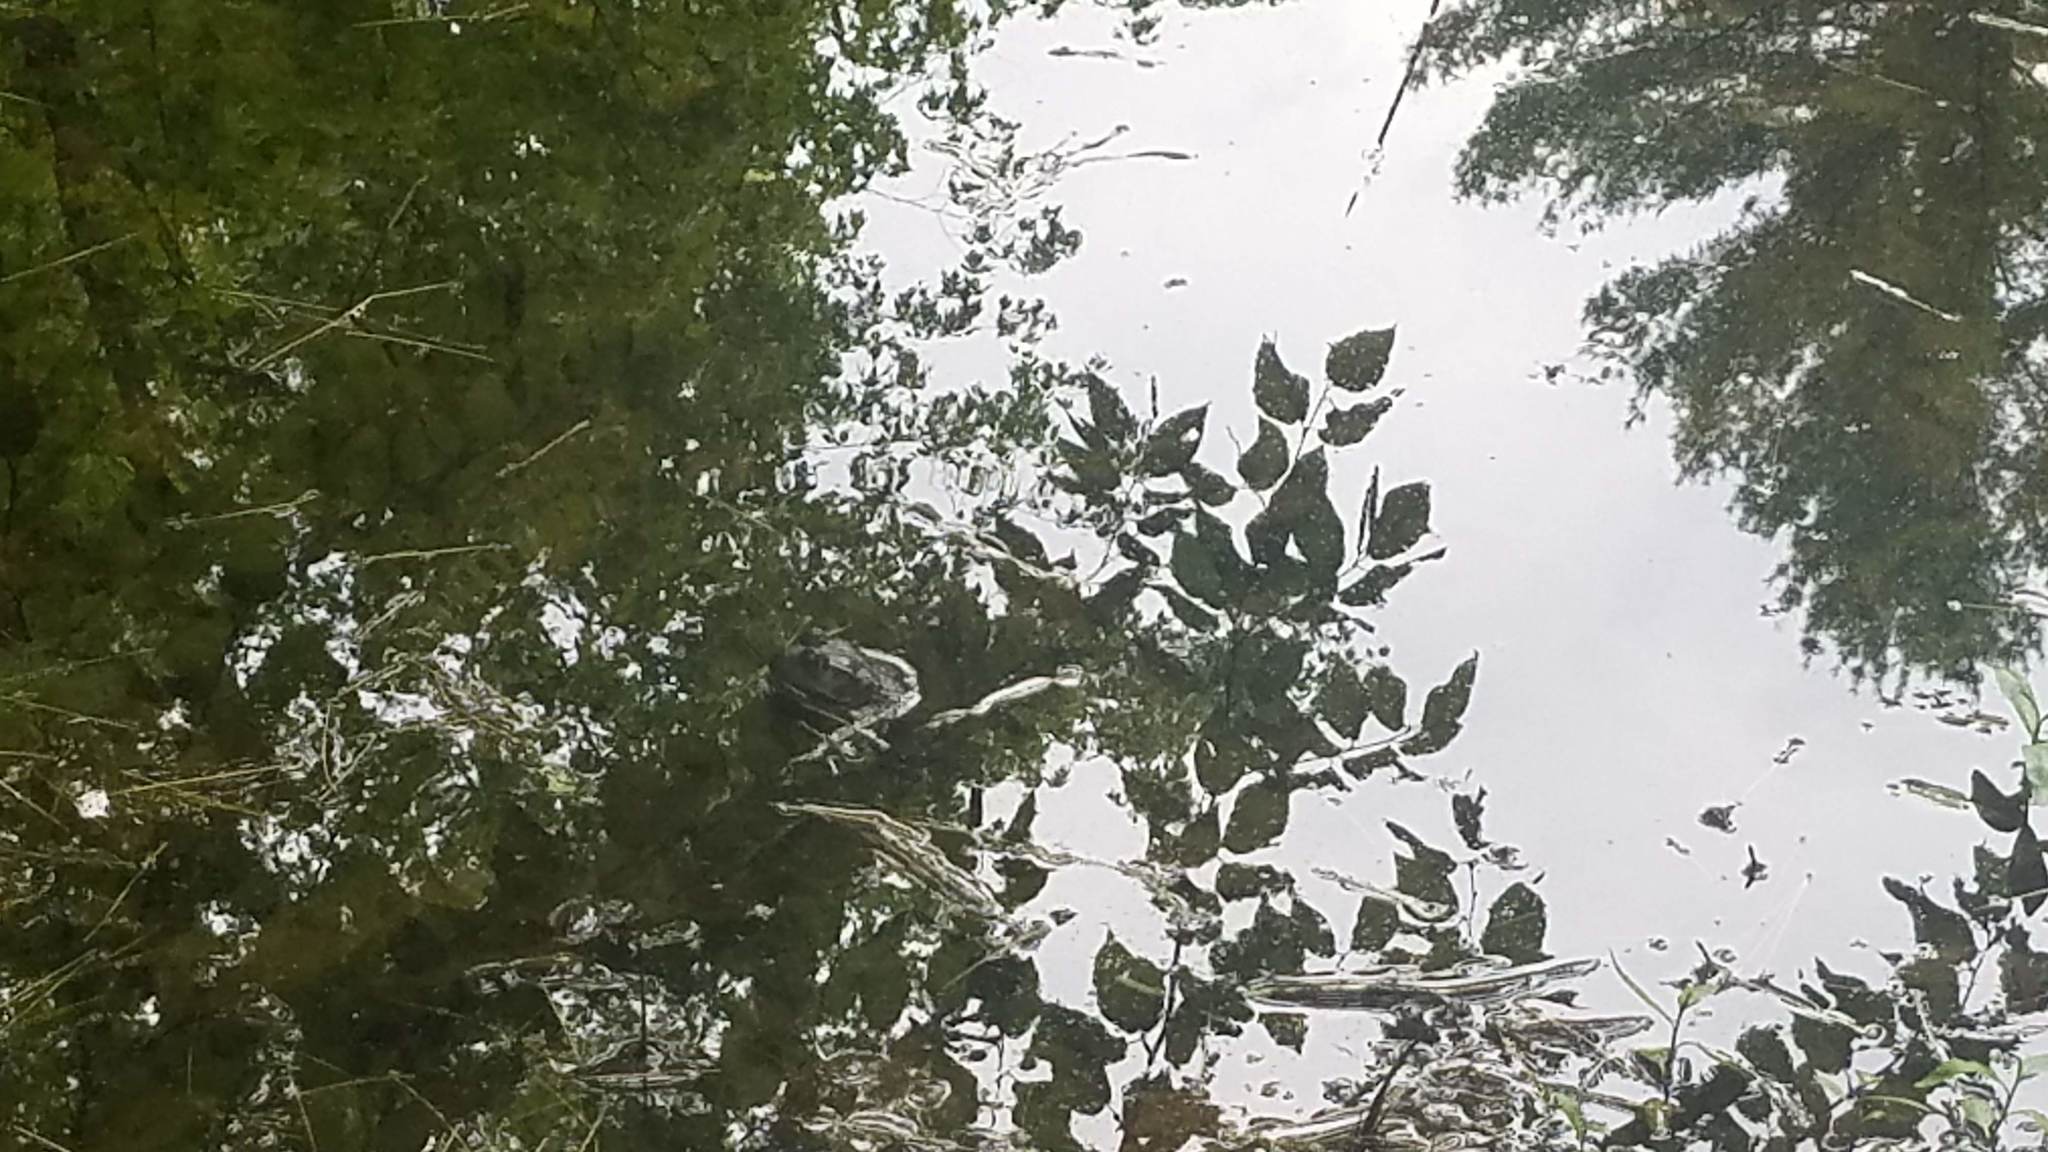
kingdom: Animalia
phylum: Chordata
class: Amphibia
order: Anura
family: Ranidae
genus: Lithobates
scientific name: Lithobates catesbeianus
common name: American bullfrog
